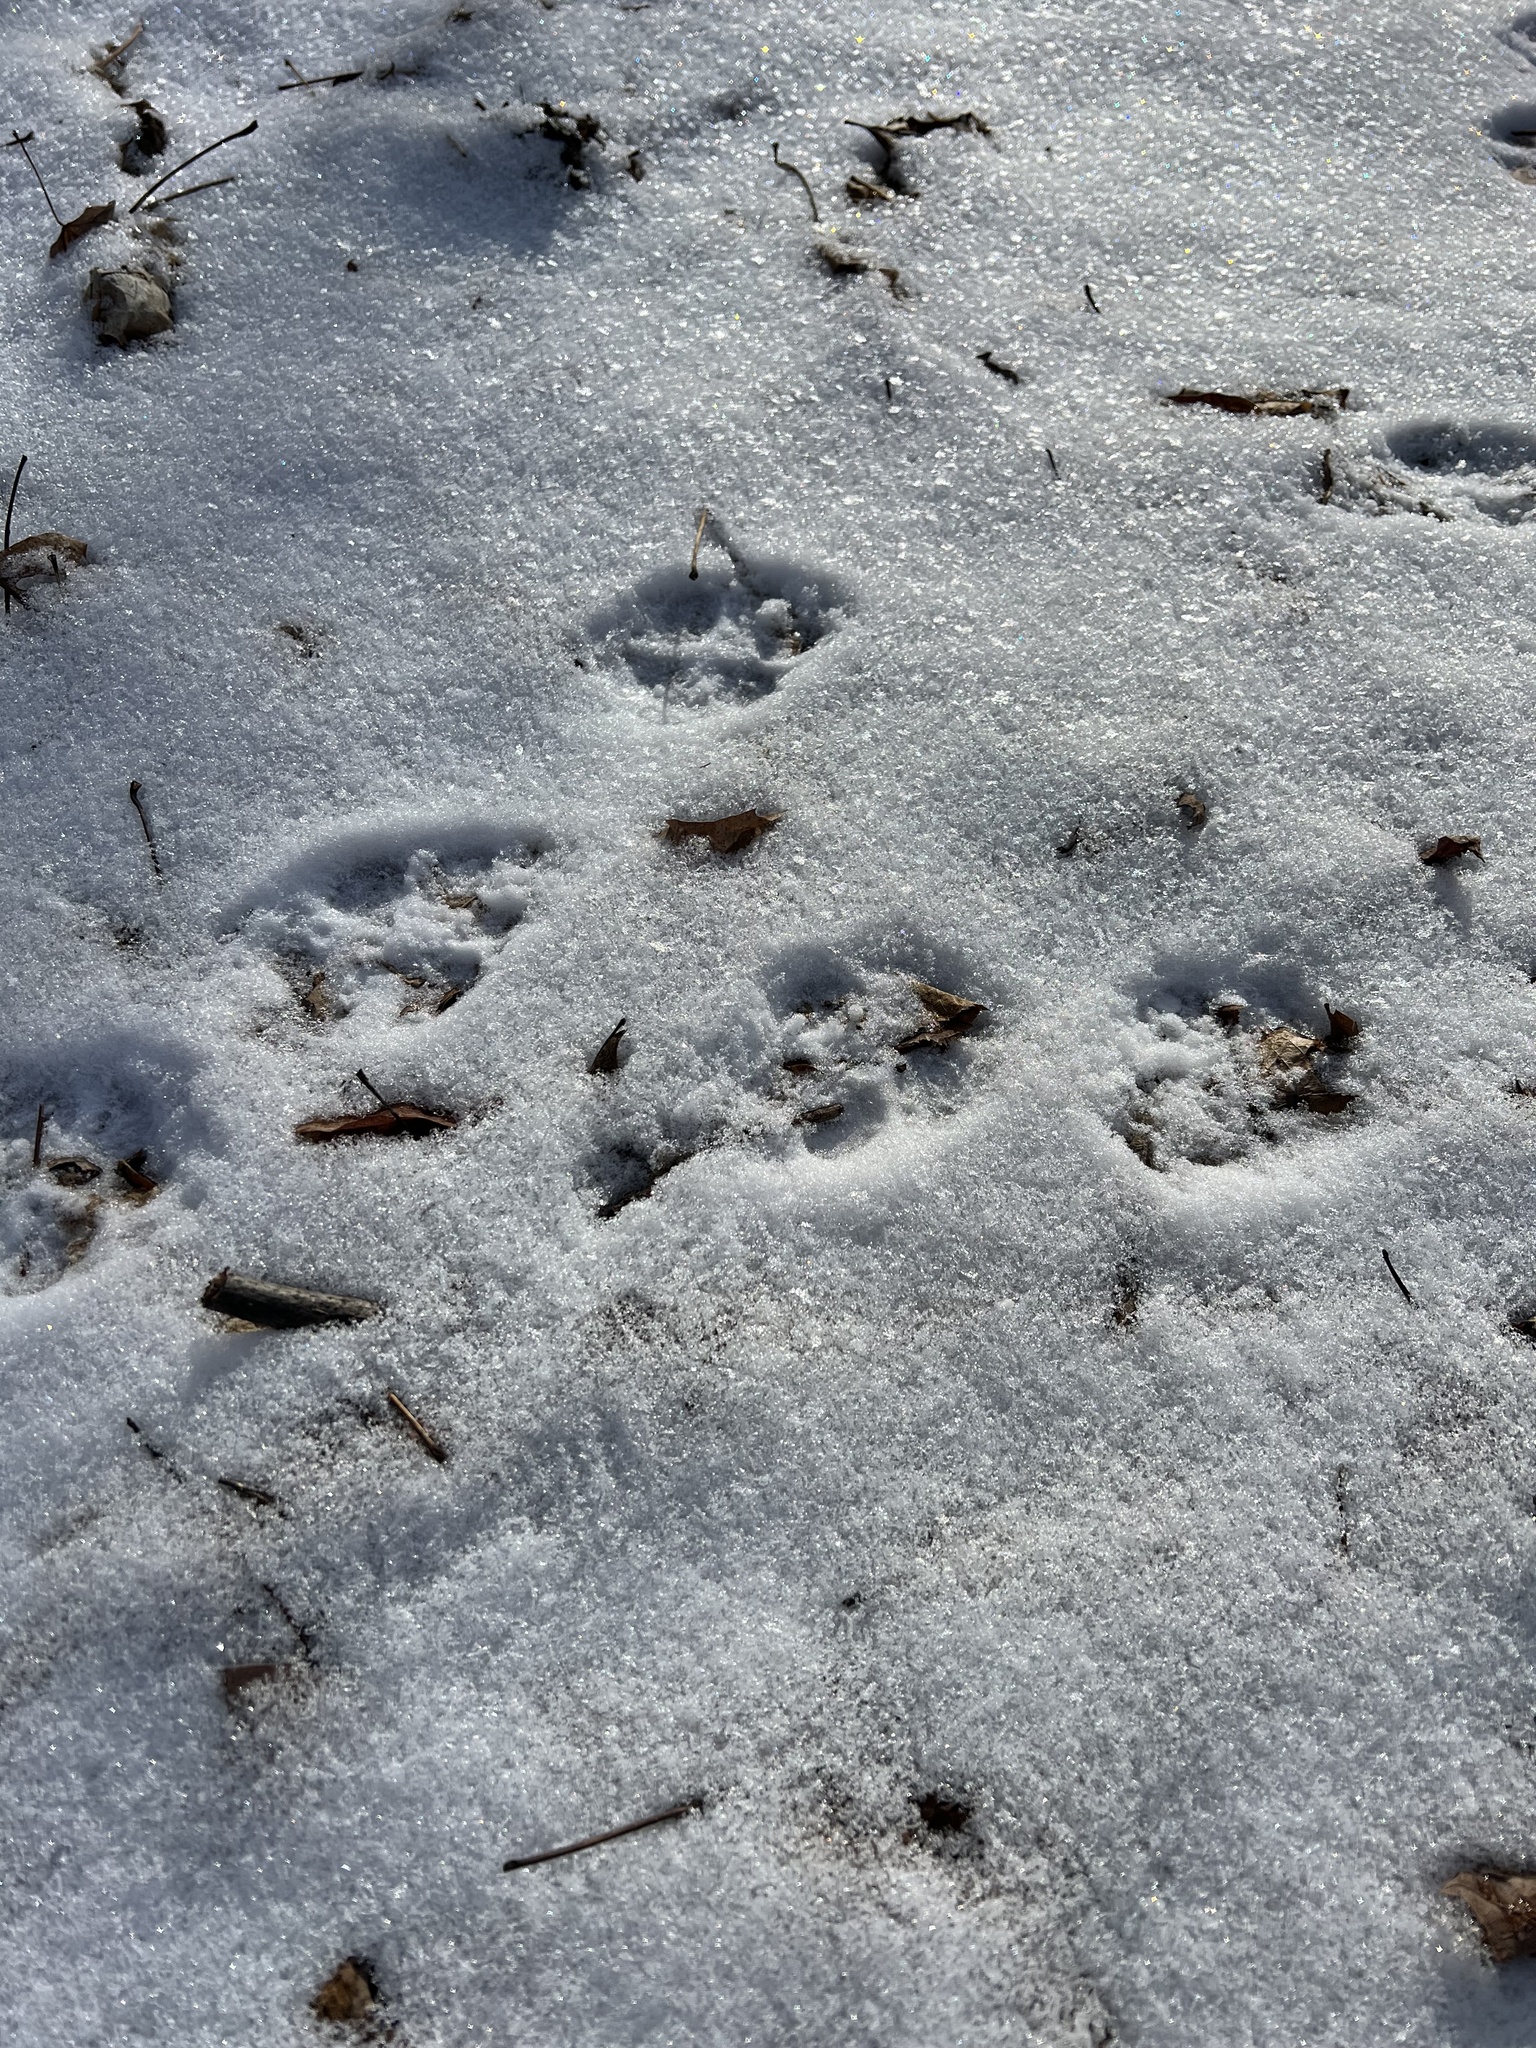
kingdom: Animalia
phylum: Chordata
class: Mammalia
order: Carnivora
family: Felidae
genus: Felis
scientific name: Felis catus
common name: Domestic cat
